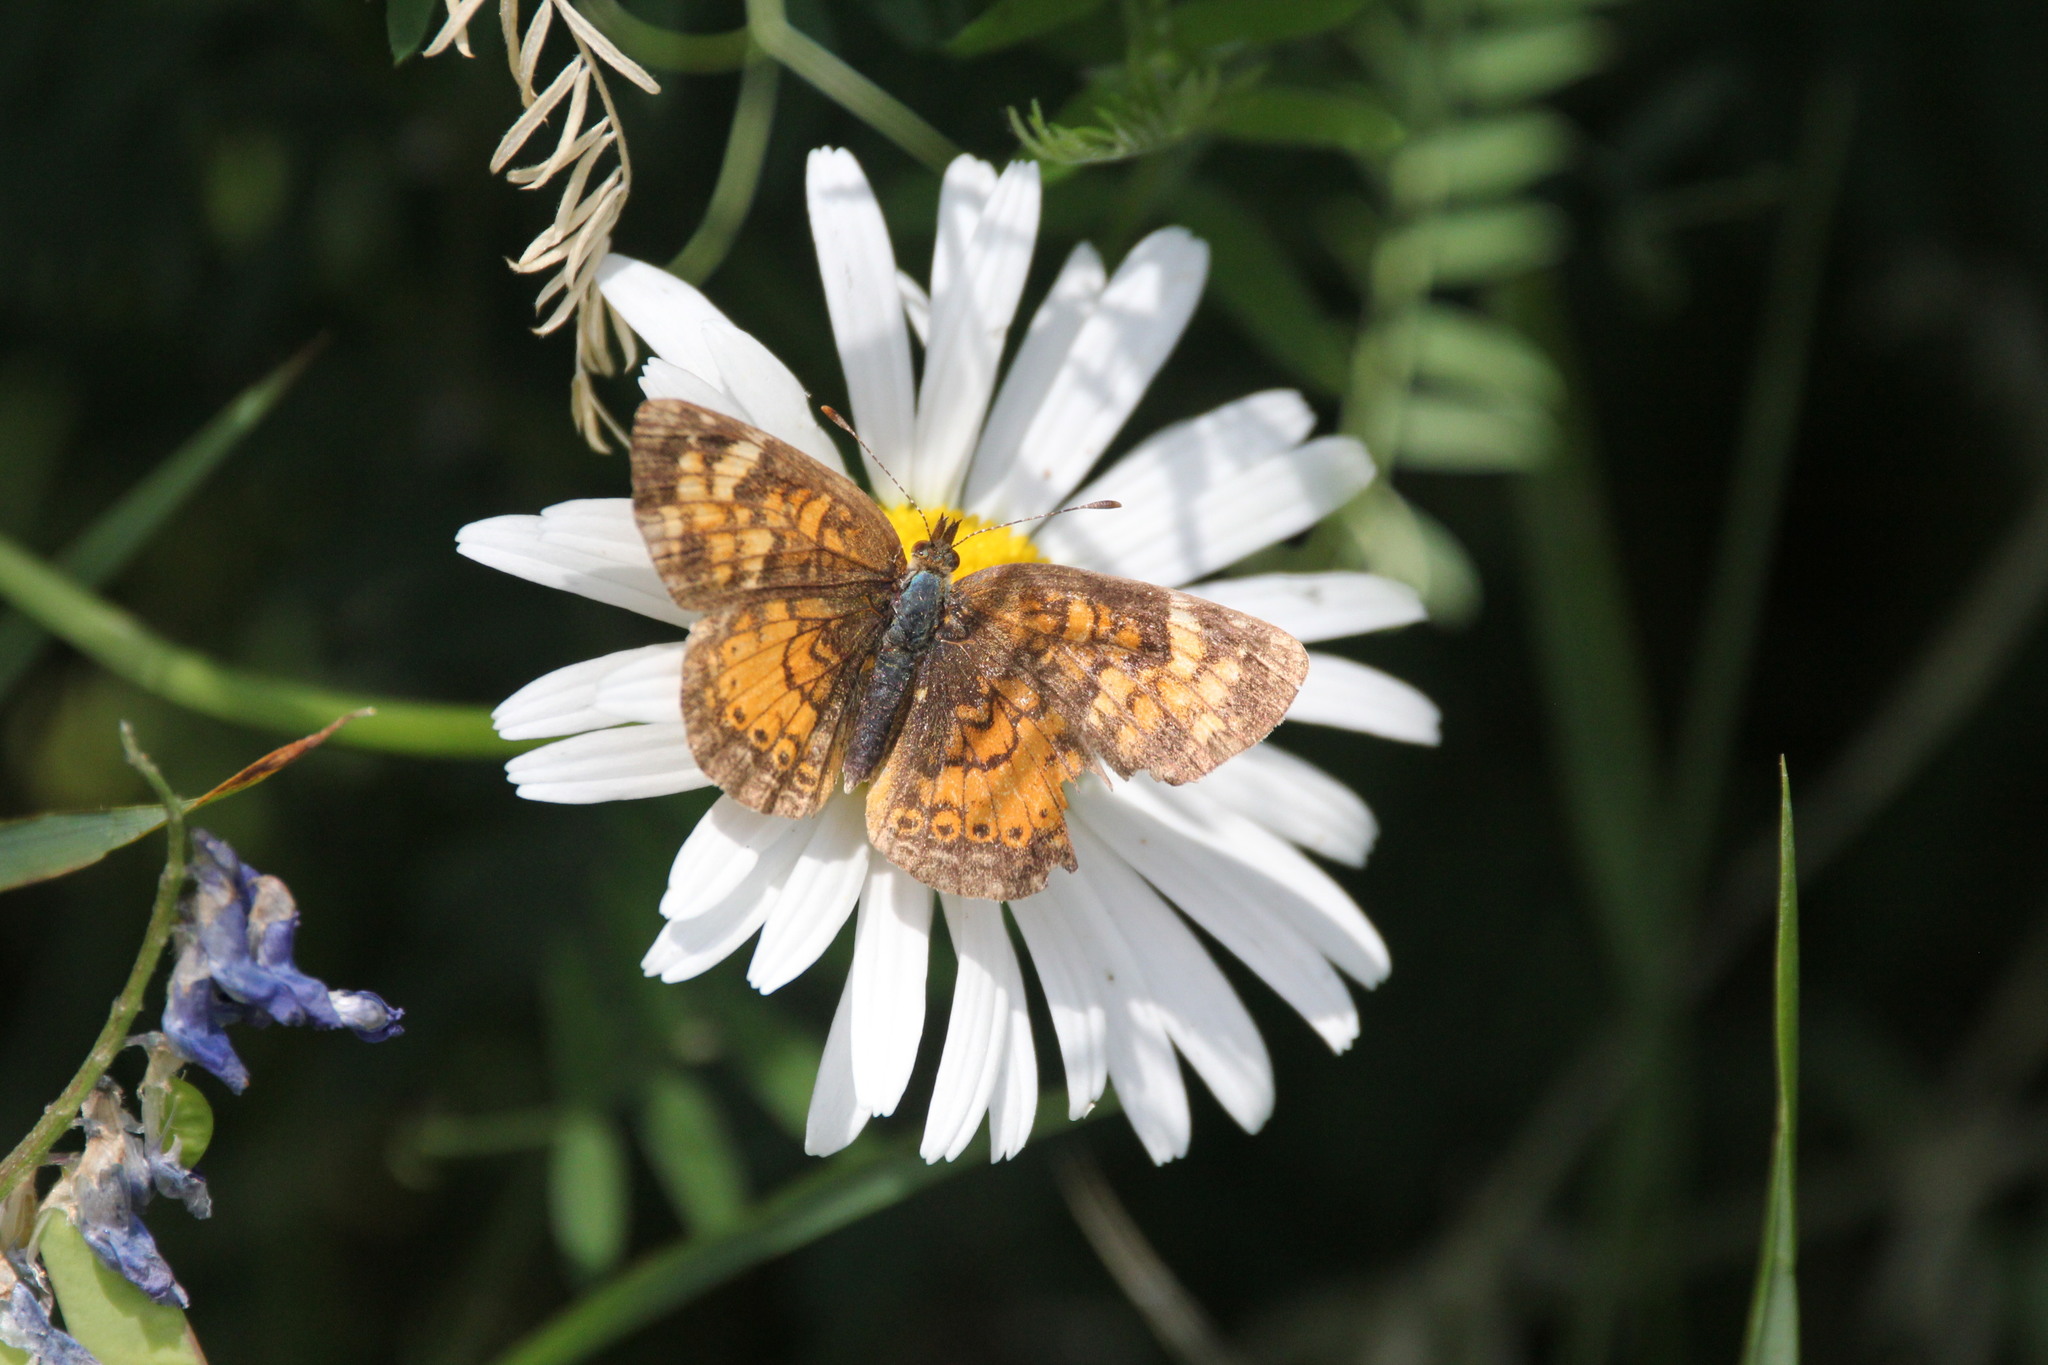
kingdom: Animalia
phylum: Arthropoda
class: Insecta
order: Lepidoptera
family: Nymphalidae
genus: Phyciodes
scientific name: Phyciodes tharos
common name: Pearl crescent
